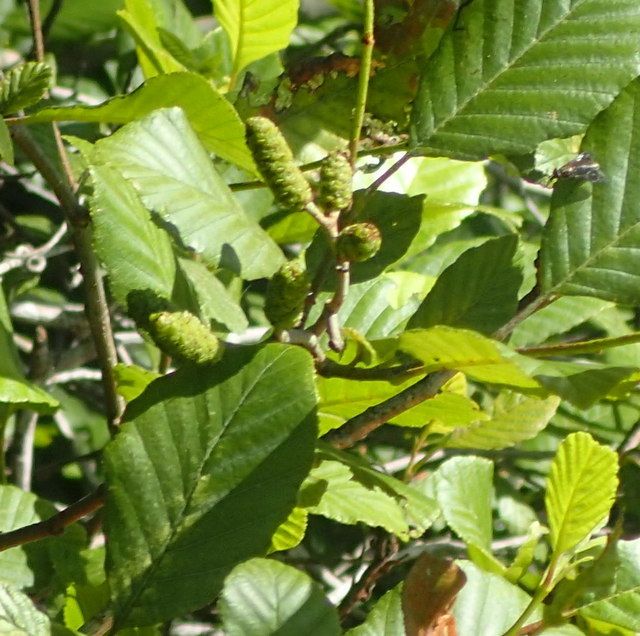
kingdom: Plantae
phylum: Tracheophyta
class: Magnoliopsida
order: Fagales
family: Betulaceae
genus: Alnus
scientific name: Alnus serrulata
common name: Hazel alder
